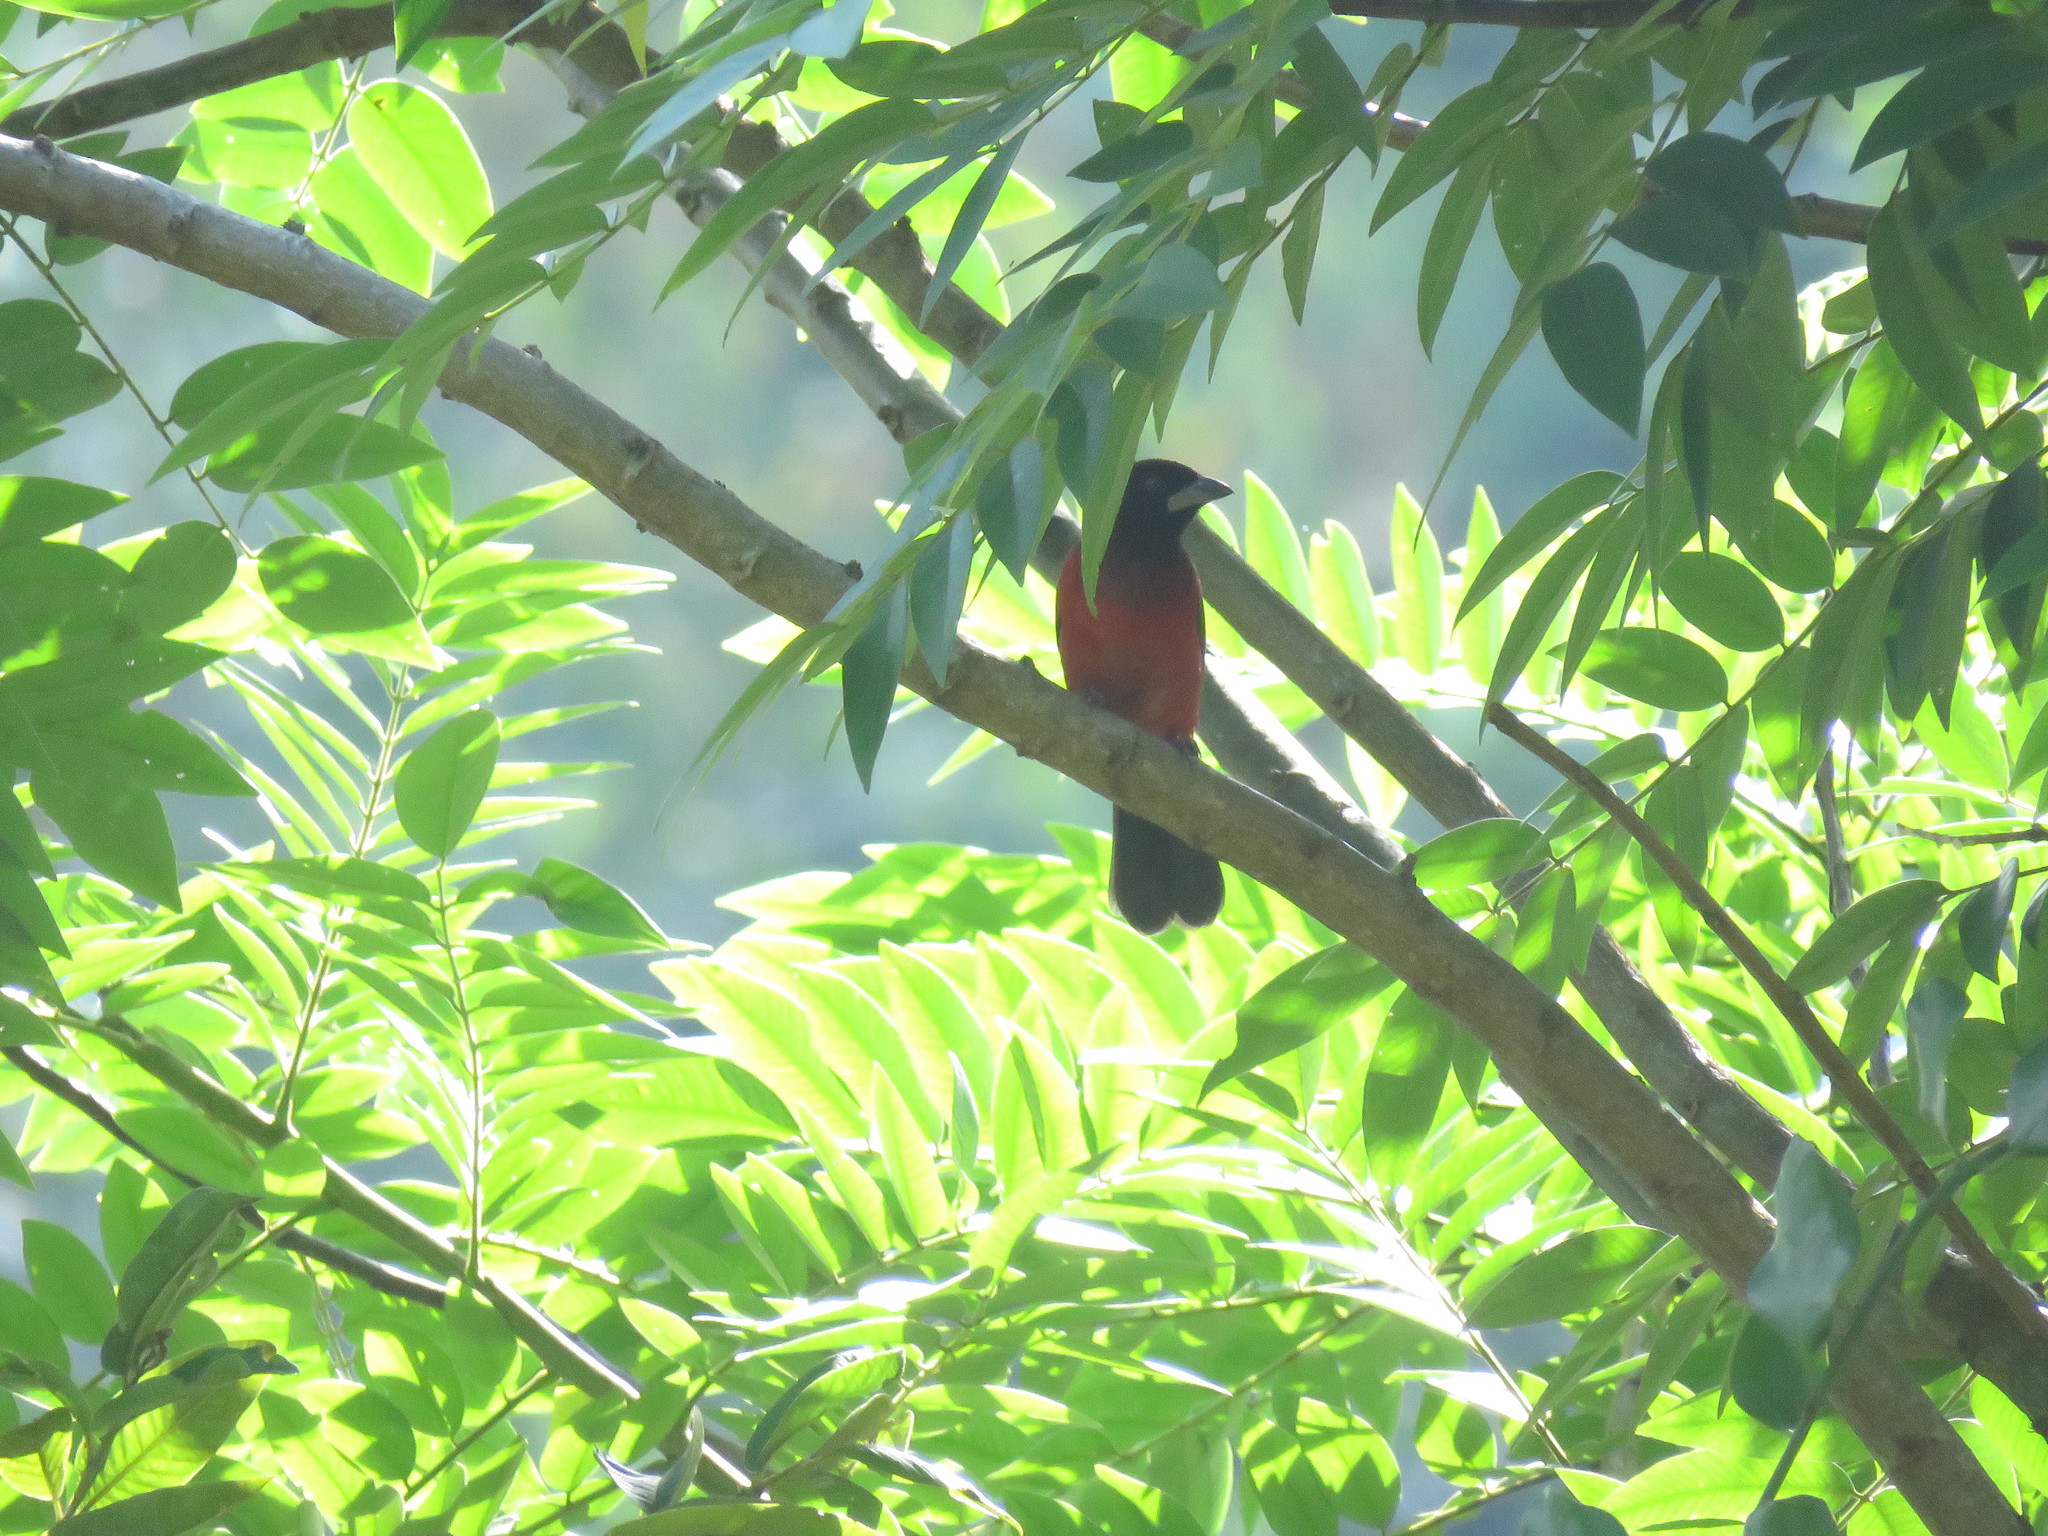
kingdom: Animalia
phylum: Chordata
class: Aves
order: Passeriformes
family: Thraupidae
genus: Ramphocelus
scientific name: Ramphocelus dimidiatus
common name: Crimson-backed tanager
